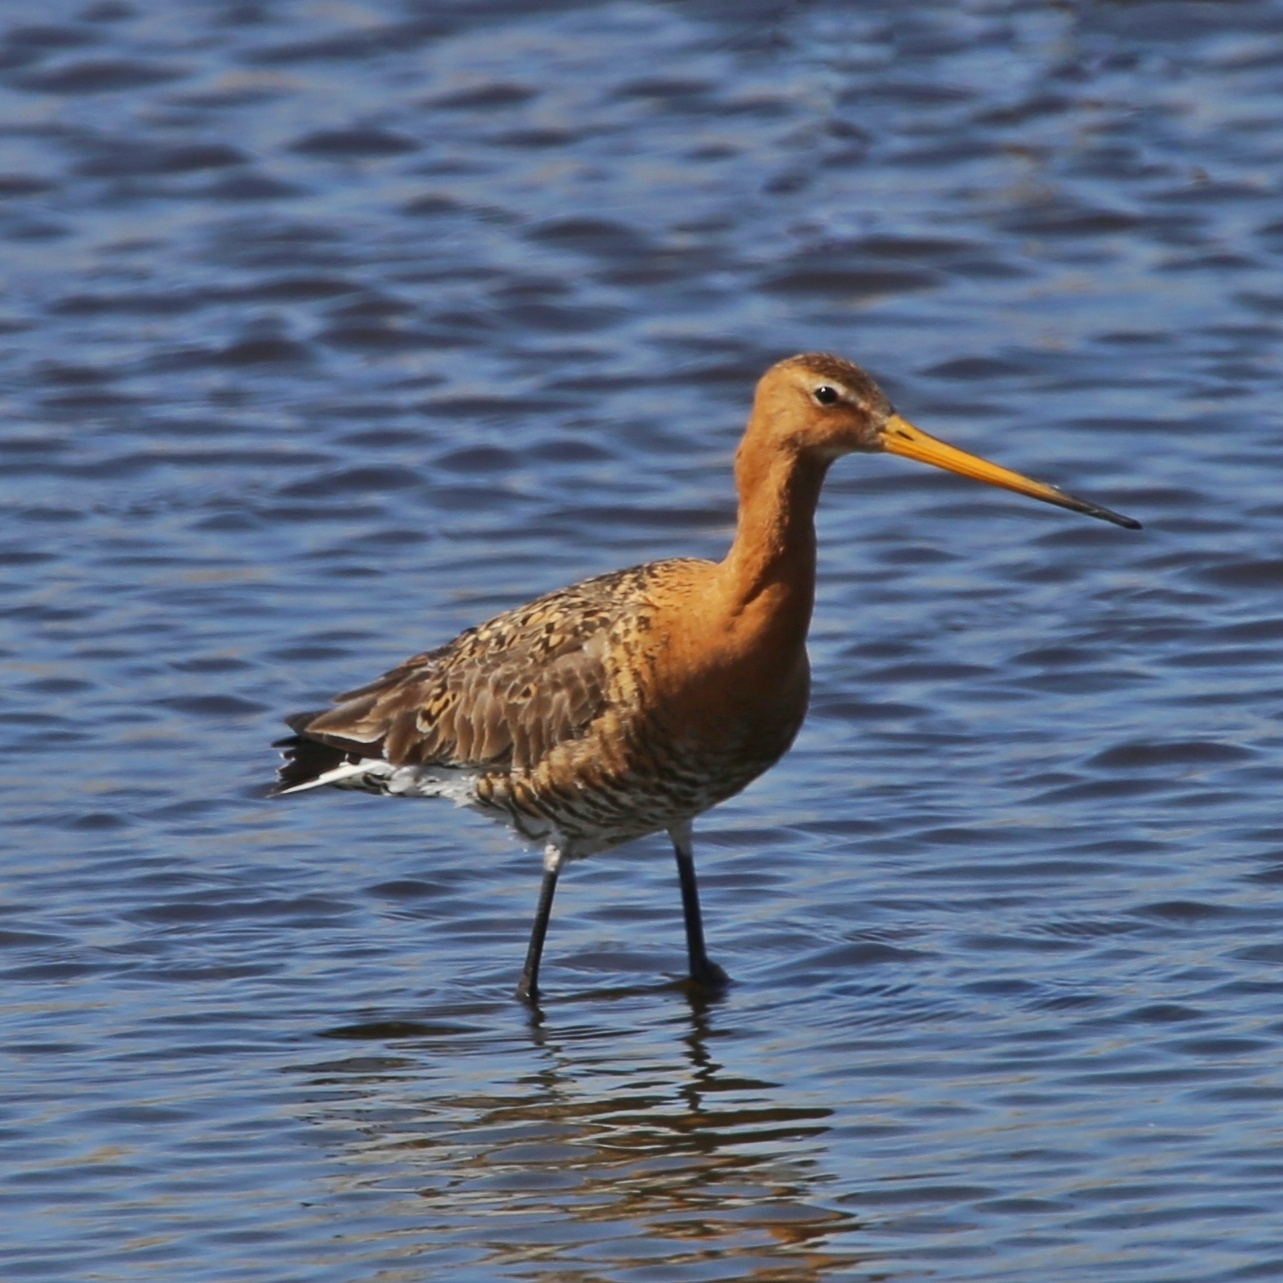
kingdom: Animalia
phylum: Chordata
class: Aves
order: Charadriiformes
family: Scolopacidae
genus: Limosa
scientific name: Limosa limosa
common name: Black-tailed godwit
